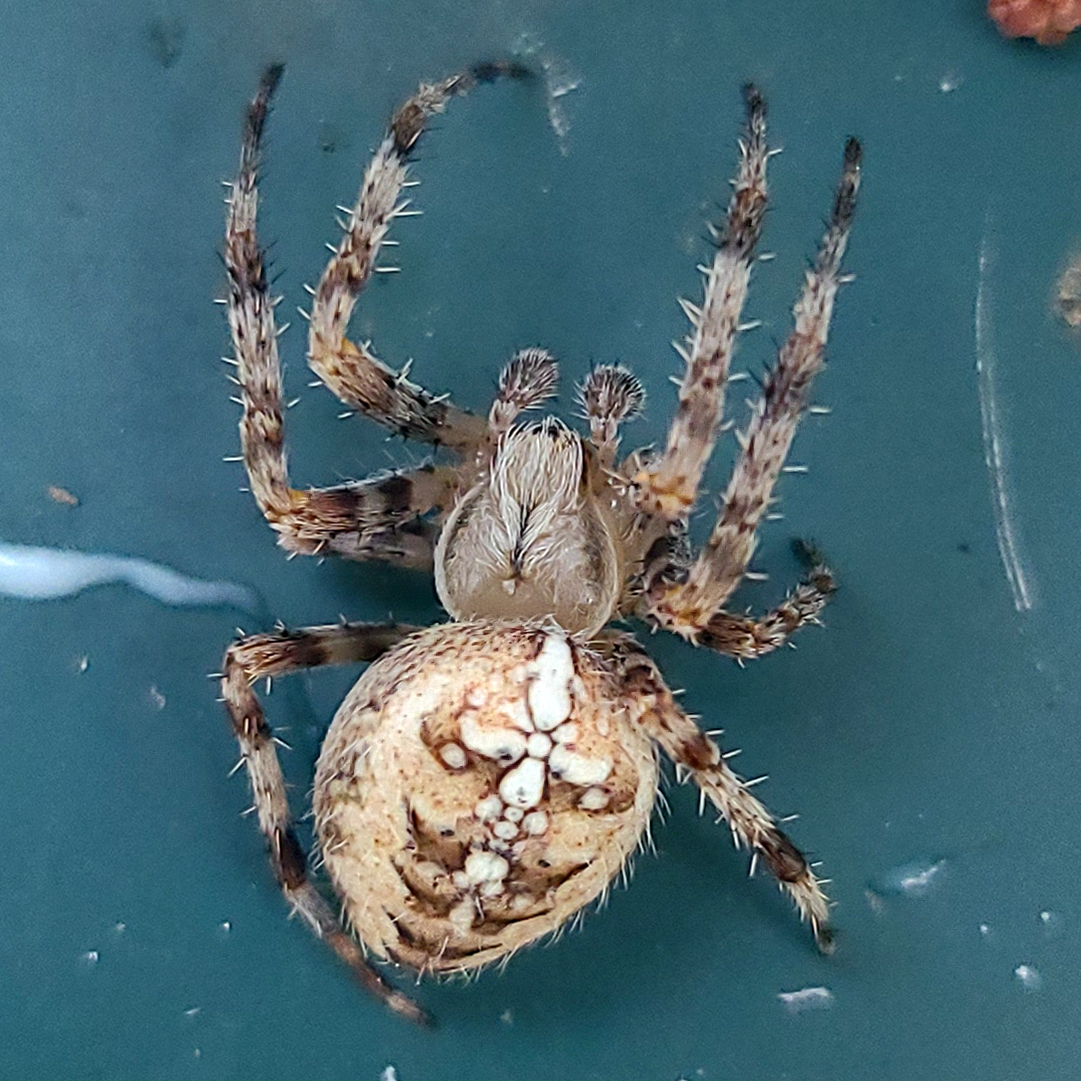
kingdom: Animalia
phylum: Arthropoda
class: Arachnida
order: Araneae
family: Araneidae
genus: Araneus
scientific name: Araneus diadematus
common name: Cross orbweaver
